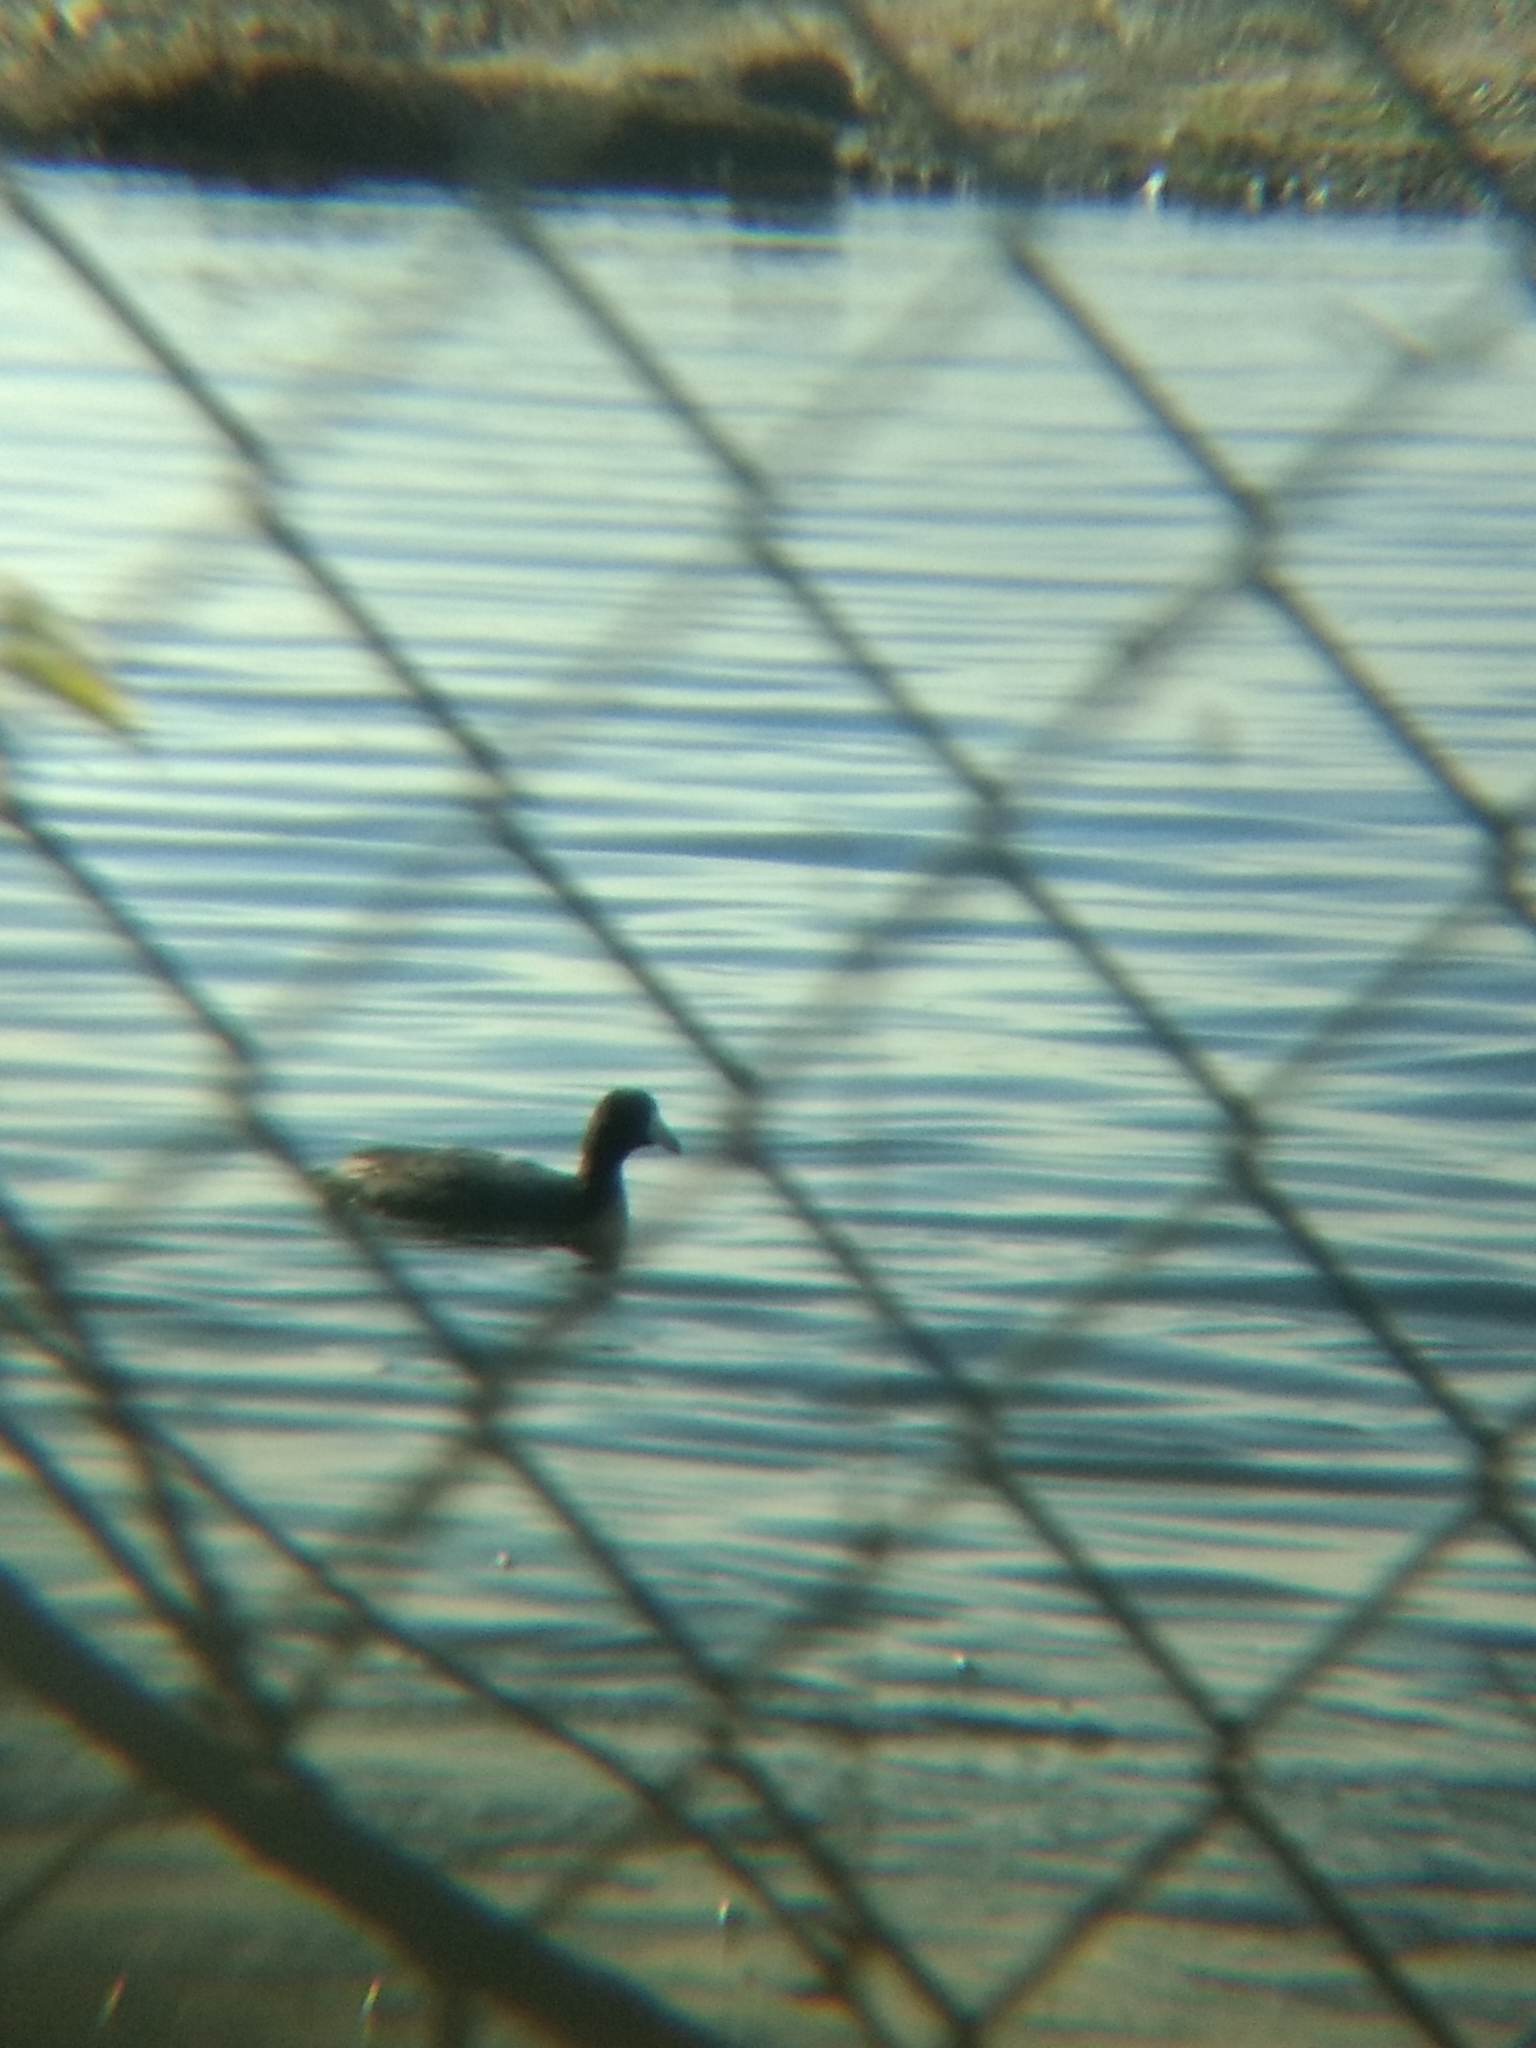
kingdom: Animalia
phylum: Chordata
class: Aves
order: Gruiformes
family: Rallidae
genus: Fulica
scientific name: Fulica americana
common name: American coot
